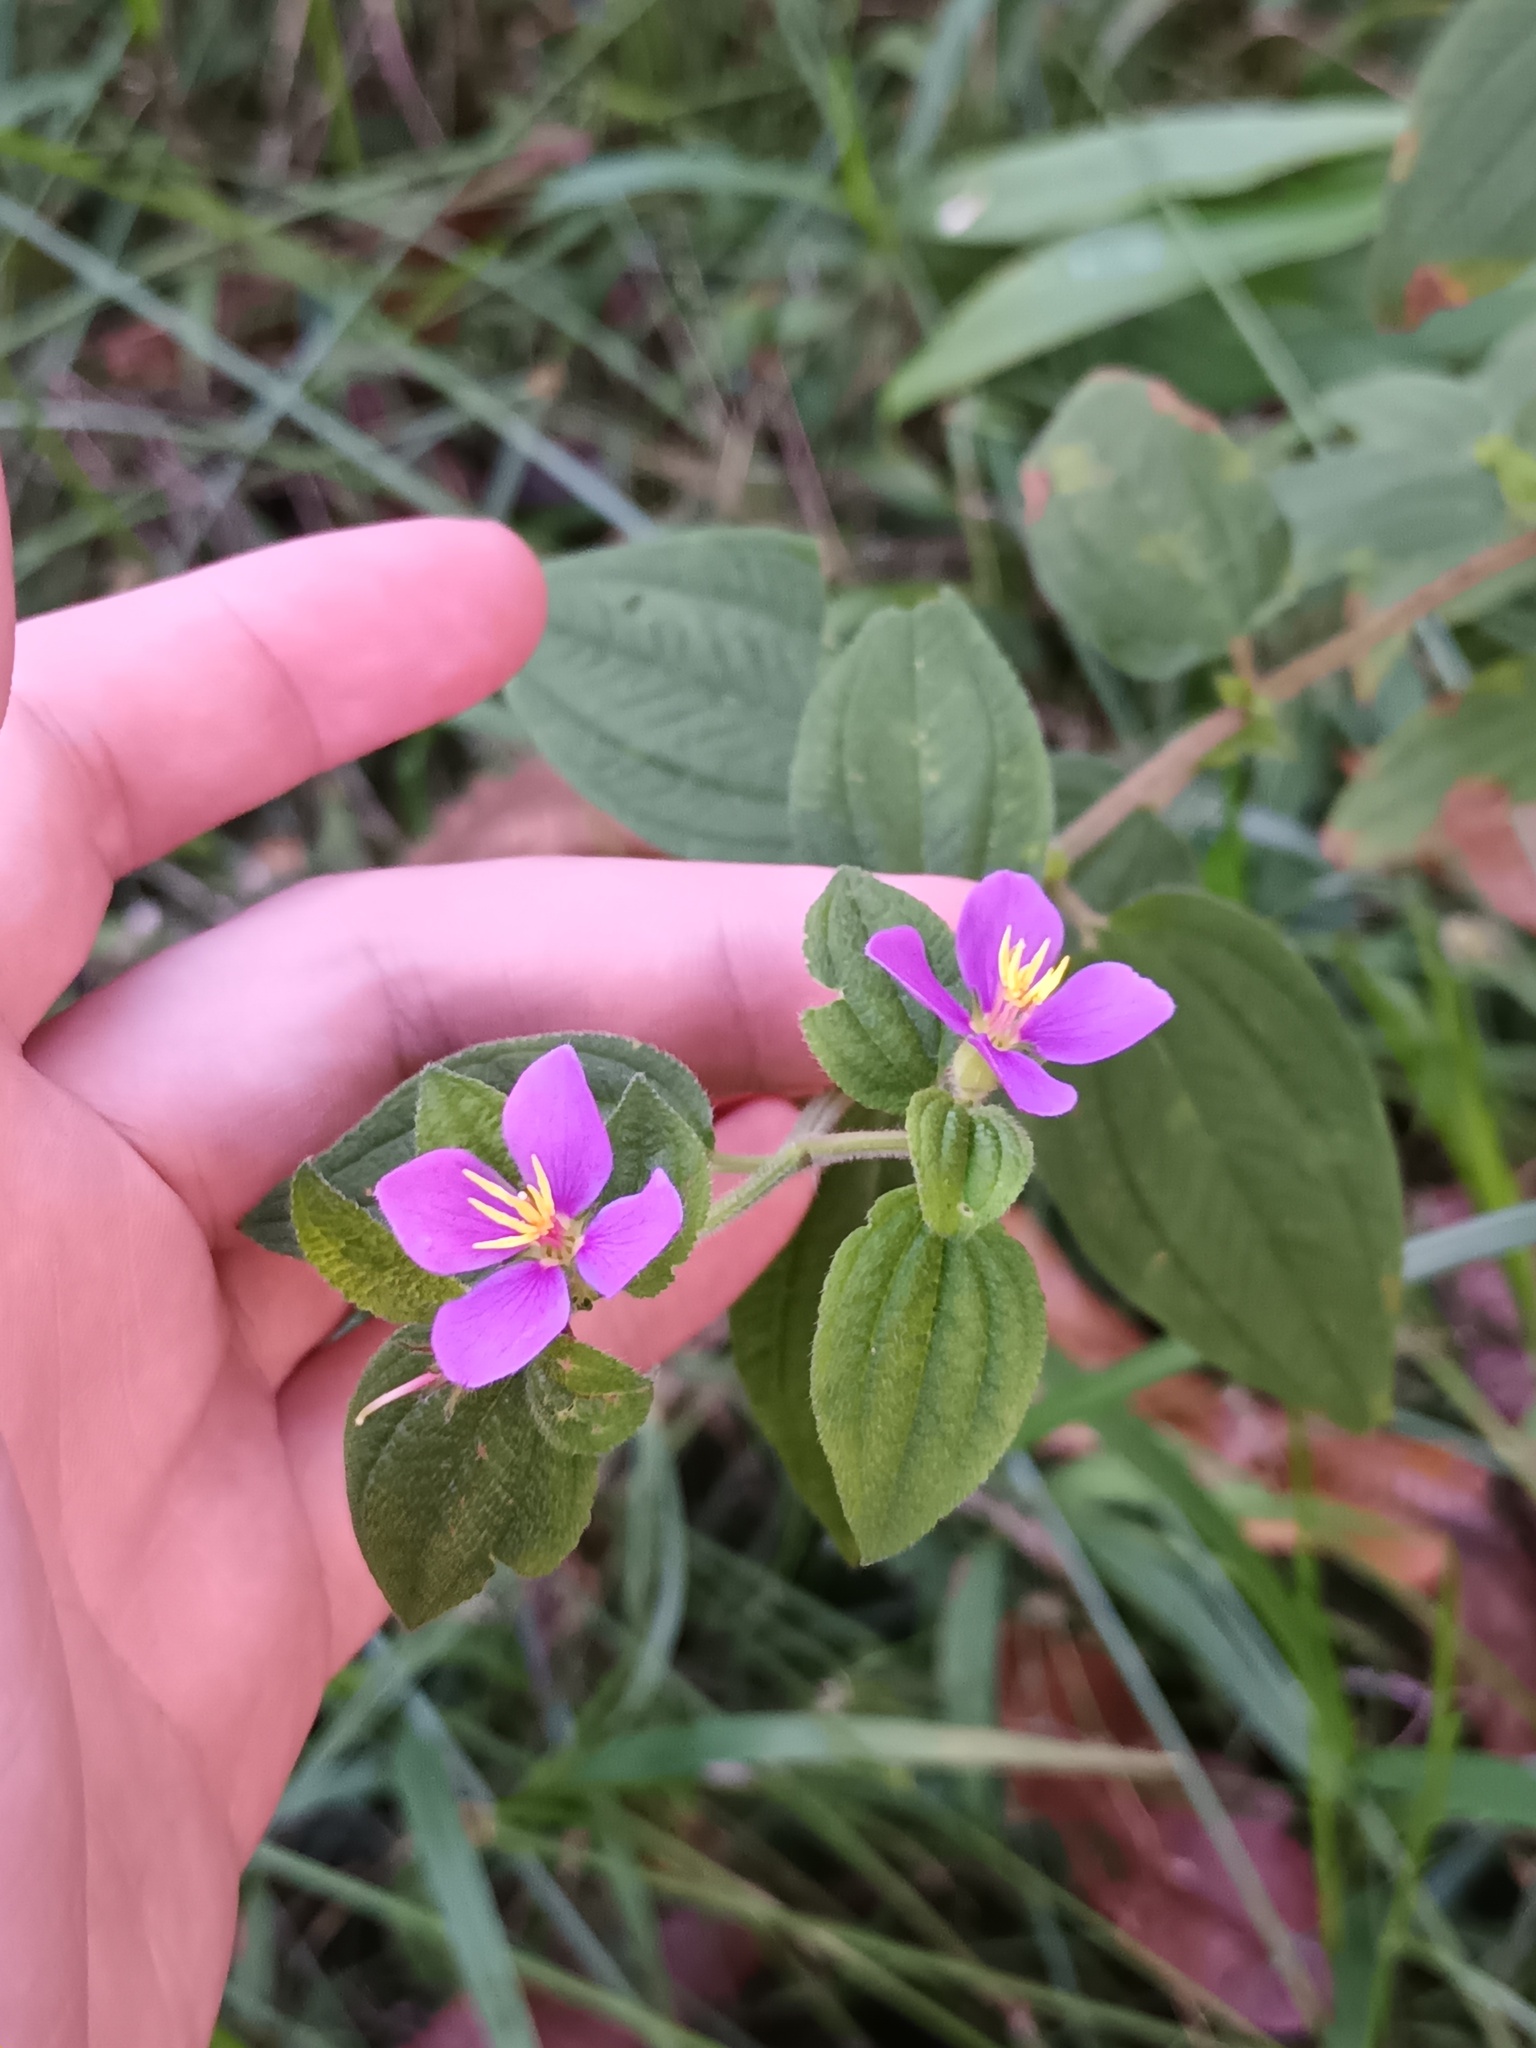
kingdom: Plantae
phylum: Tracheophyta
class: Magnoliopsida
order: Myrtales
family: Melastomataceae
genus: Chaetogastra
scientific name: Chaetogastra herbacea
